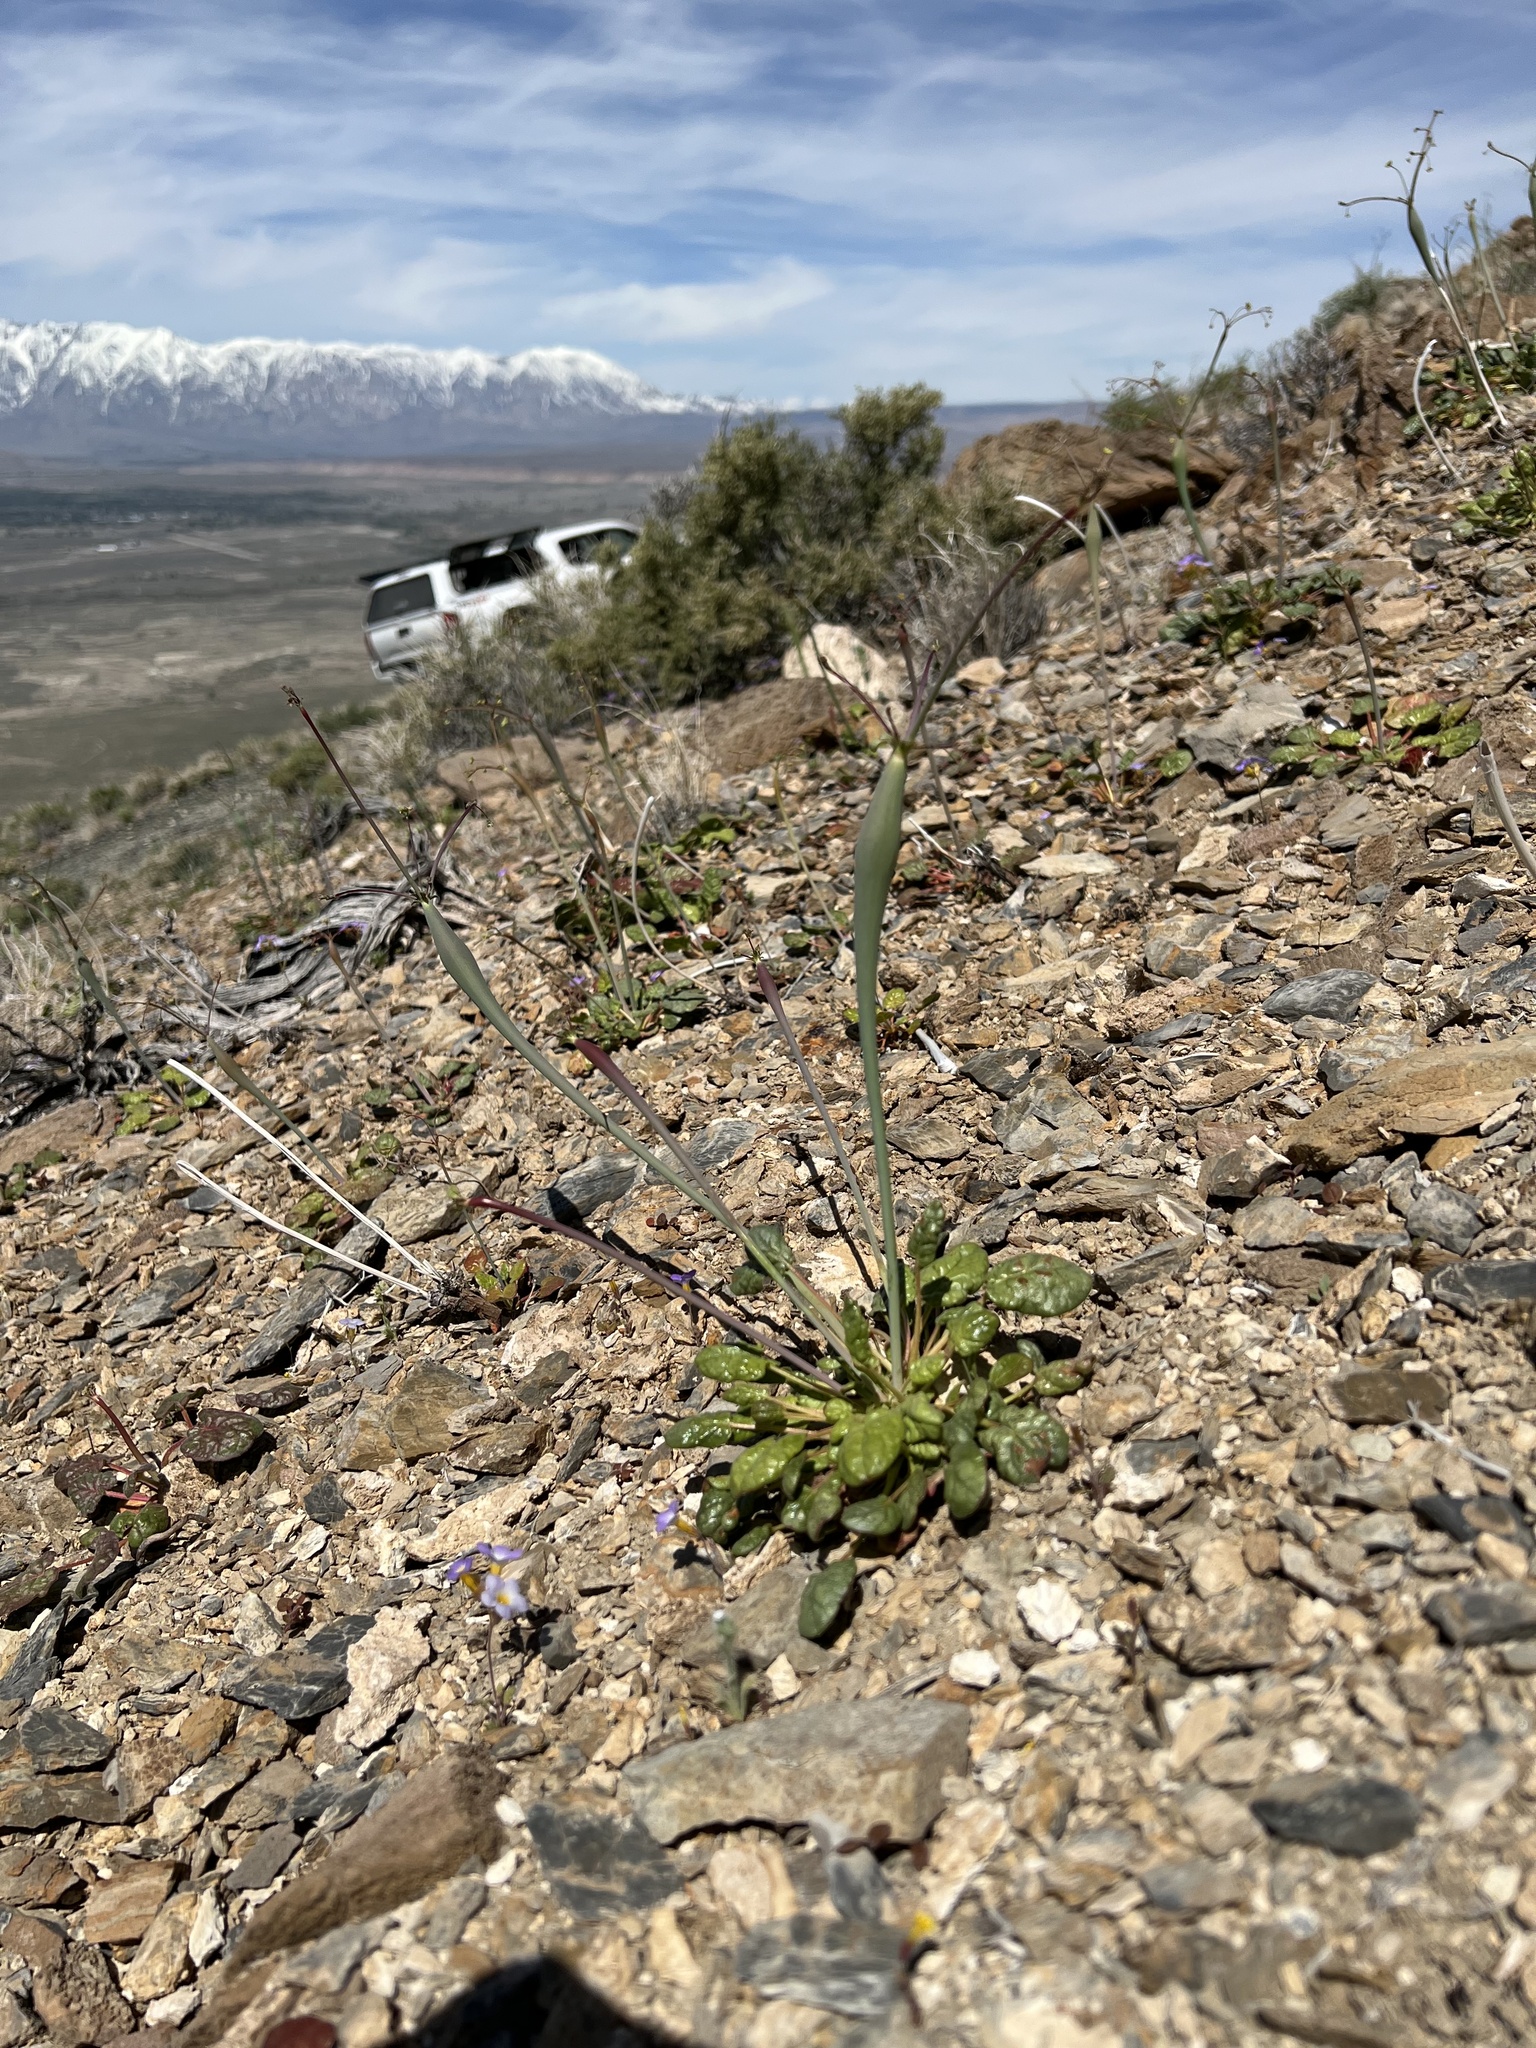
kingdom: Plantae
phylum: Tracheophyta
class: Magnoliopsida
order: Caryophyllales
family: Polygonaceae
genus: Eriogonum
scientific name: Eriogonum inflatum
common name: Desert trumpet
